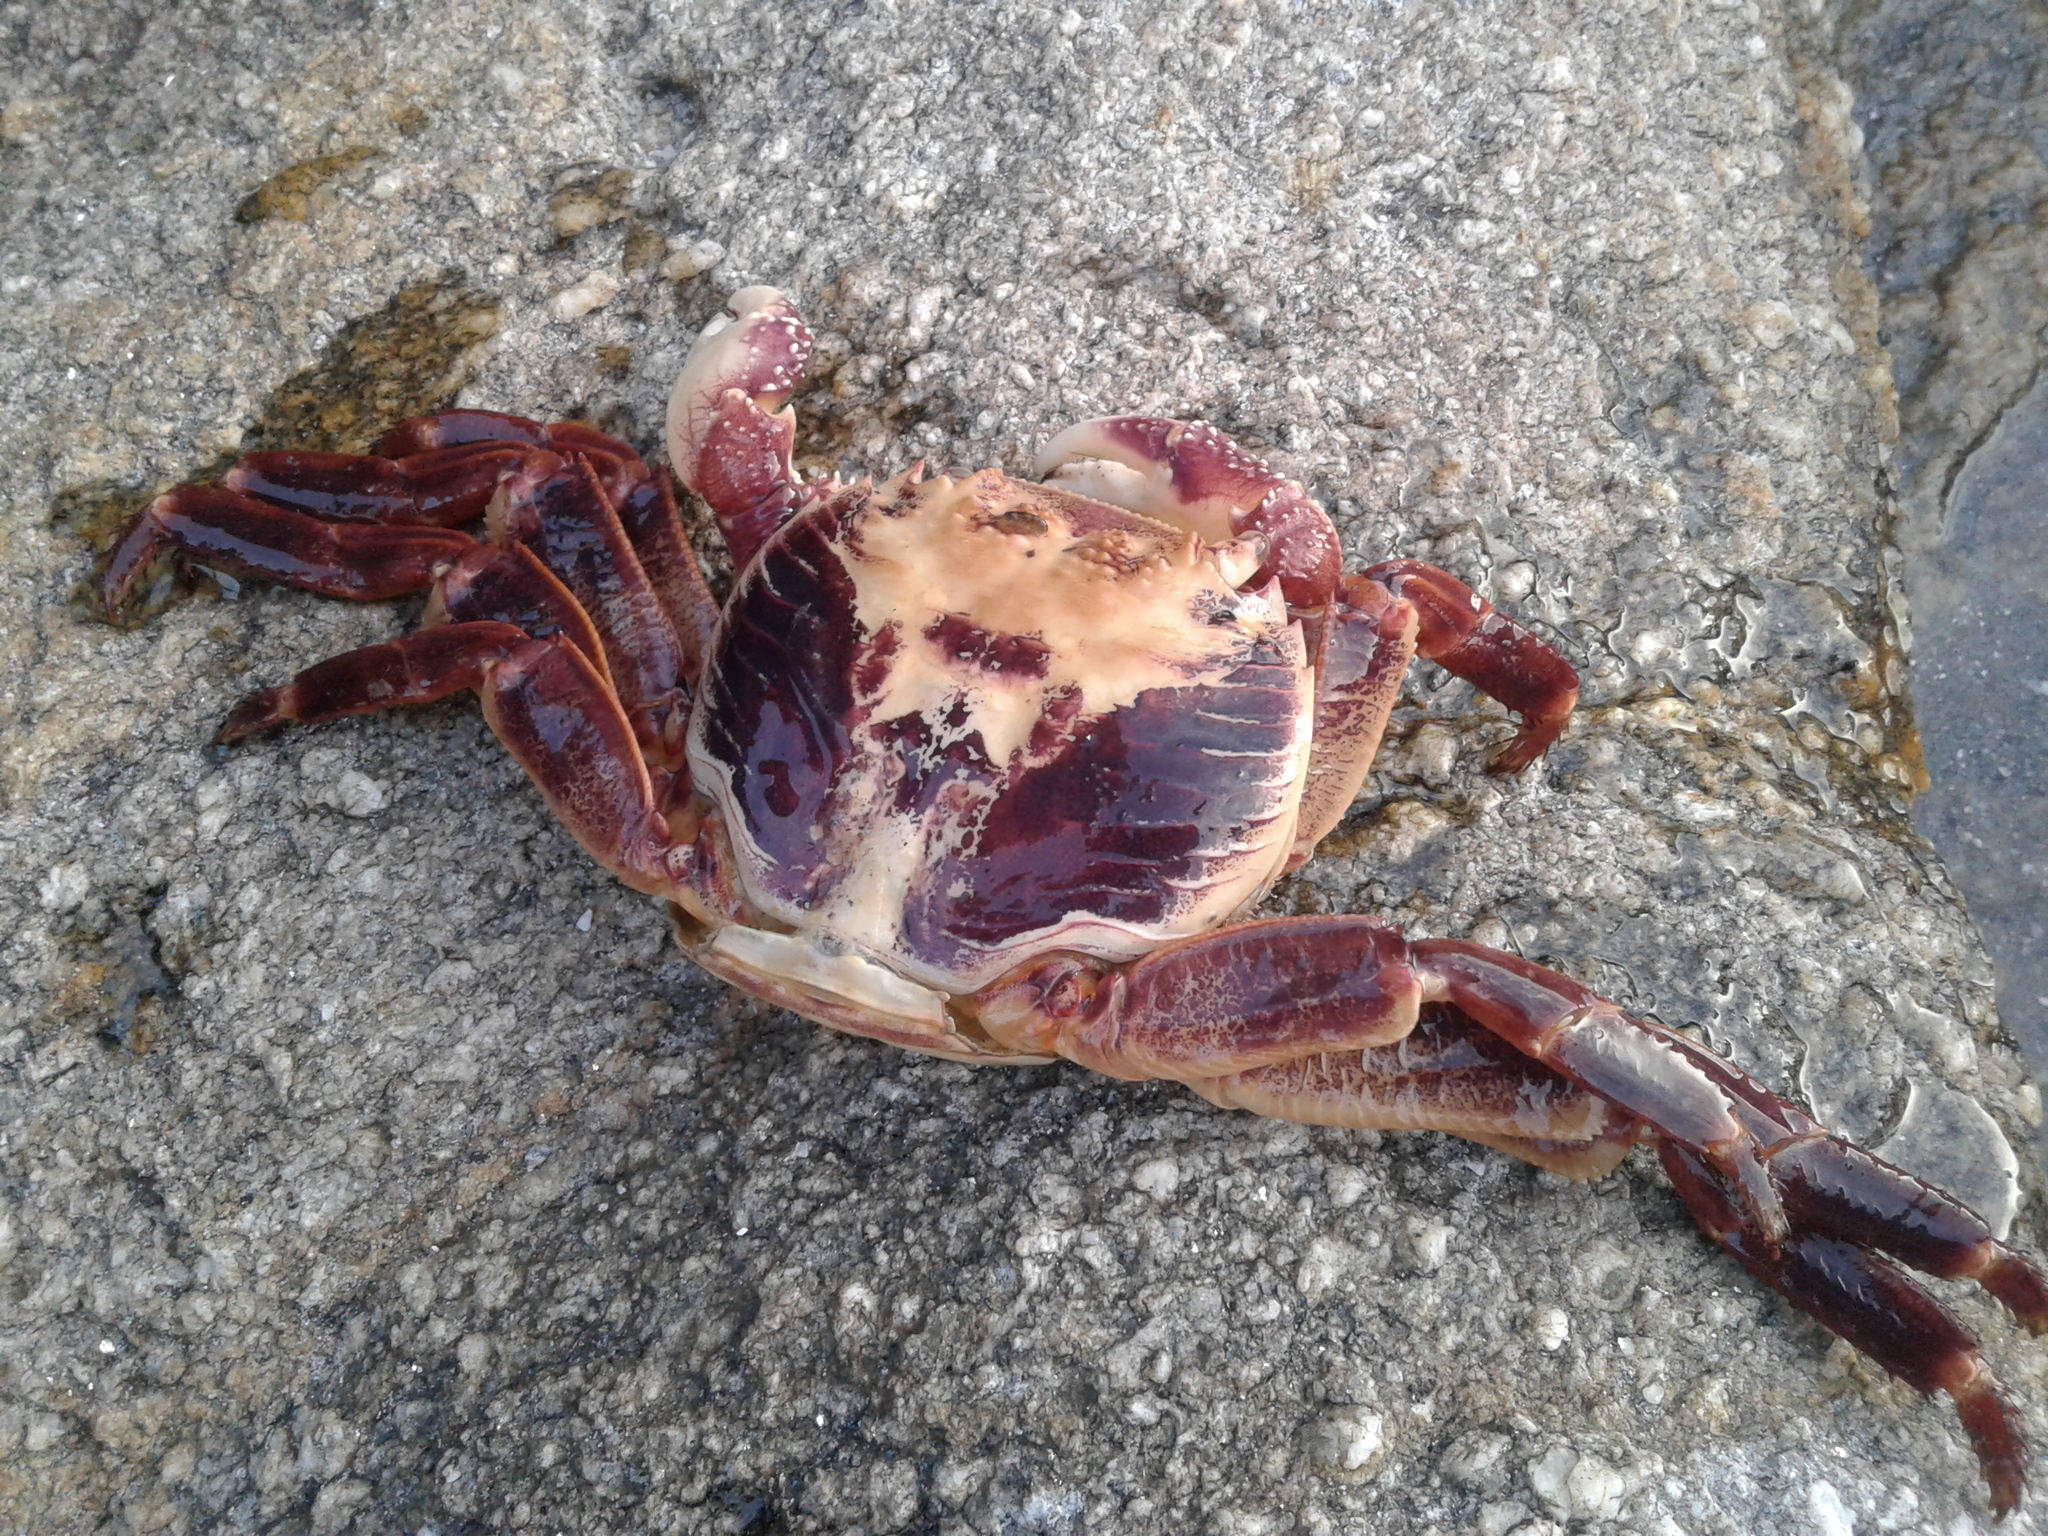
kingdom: Animalia
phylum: Arthropoda
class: Malacostraca
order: Decapoda
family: Grapsidae
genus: Leptograpsus
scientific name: Leptograpsus variegatus
